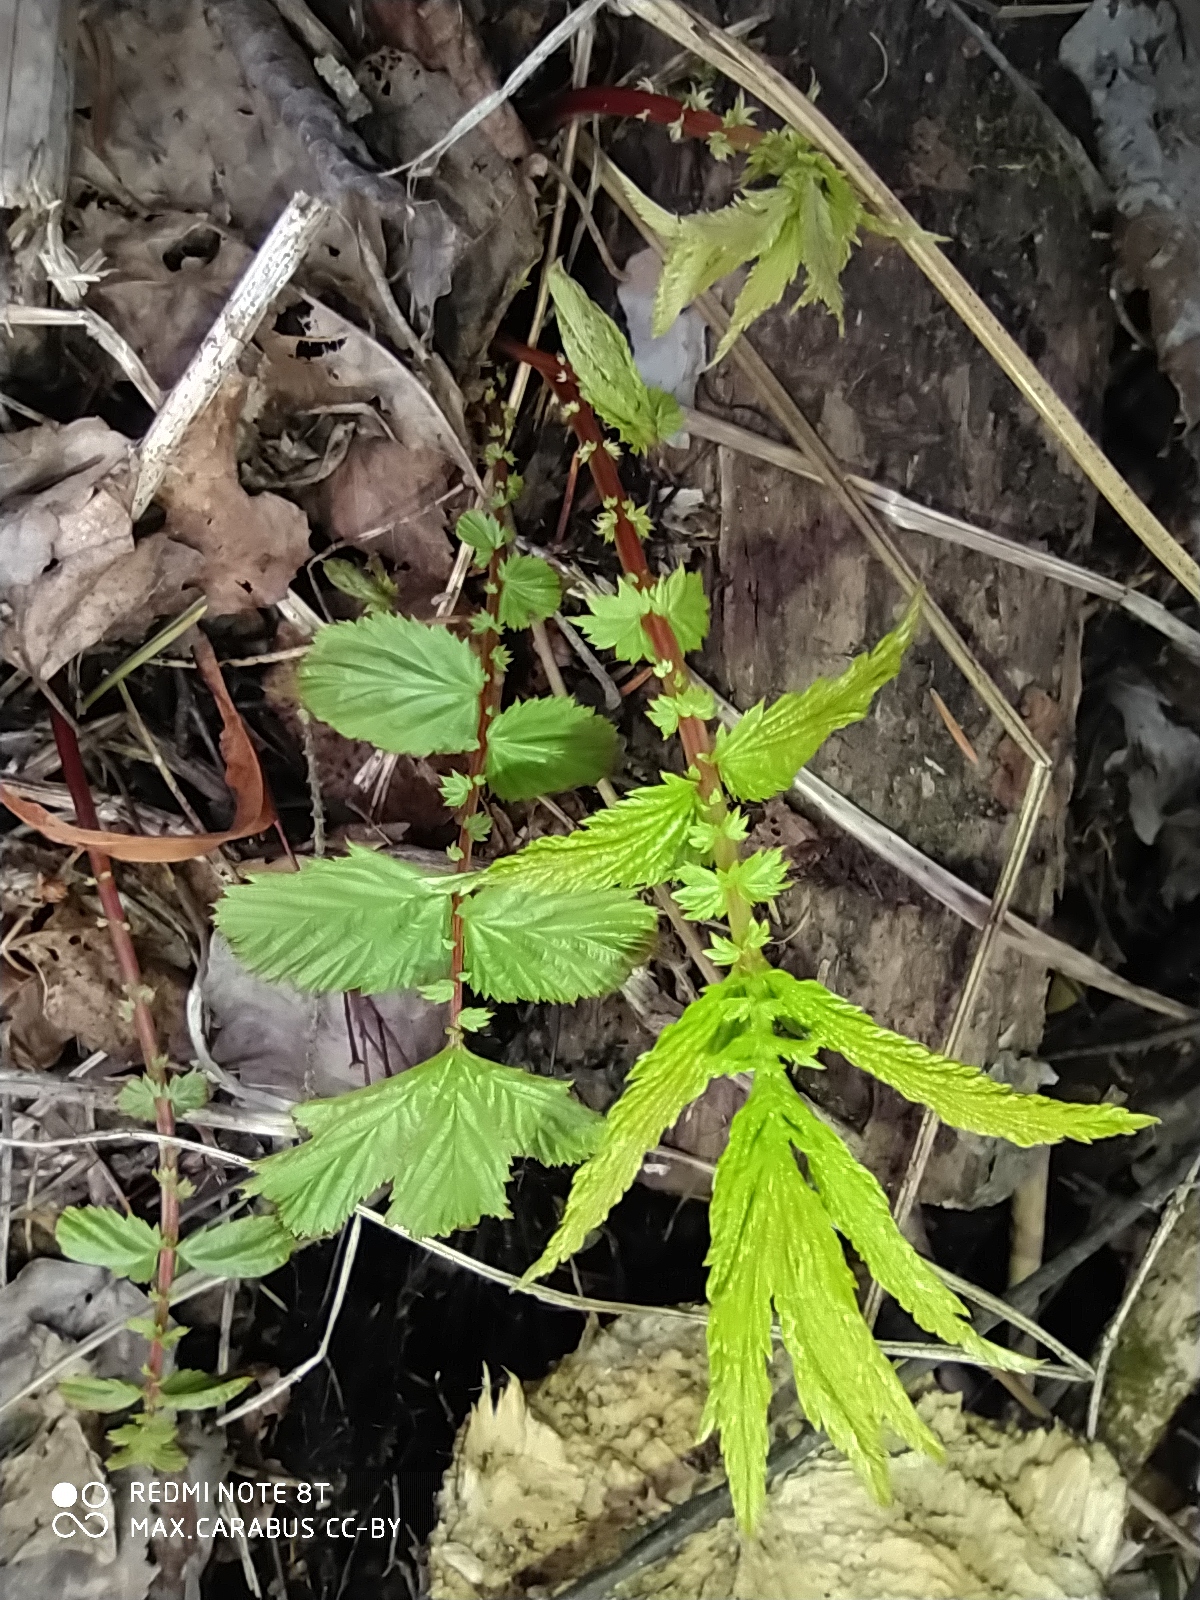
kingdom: Plantae
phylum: Tracheophyta
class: Magnoliopsida
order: Rosales
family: Rosaceae
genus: Filipendula
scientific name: Filipendula ulmaria
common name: Meadowsweet
